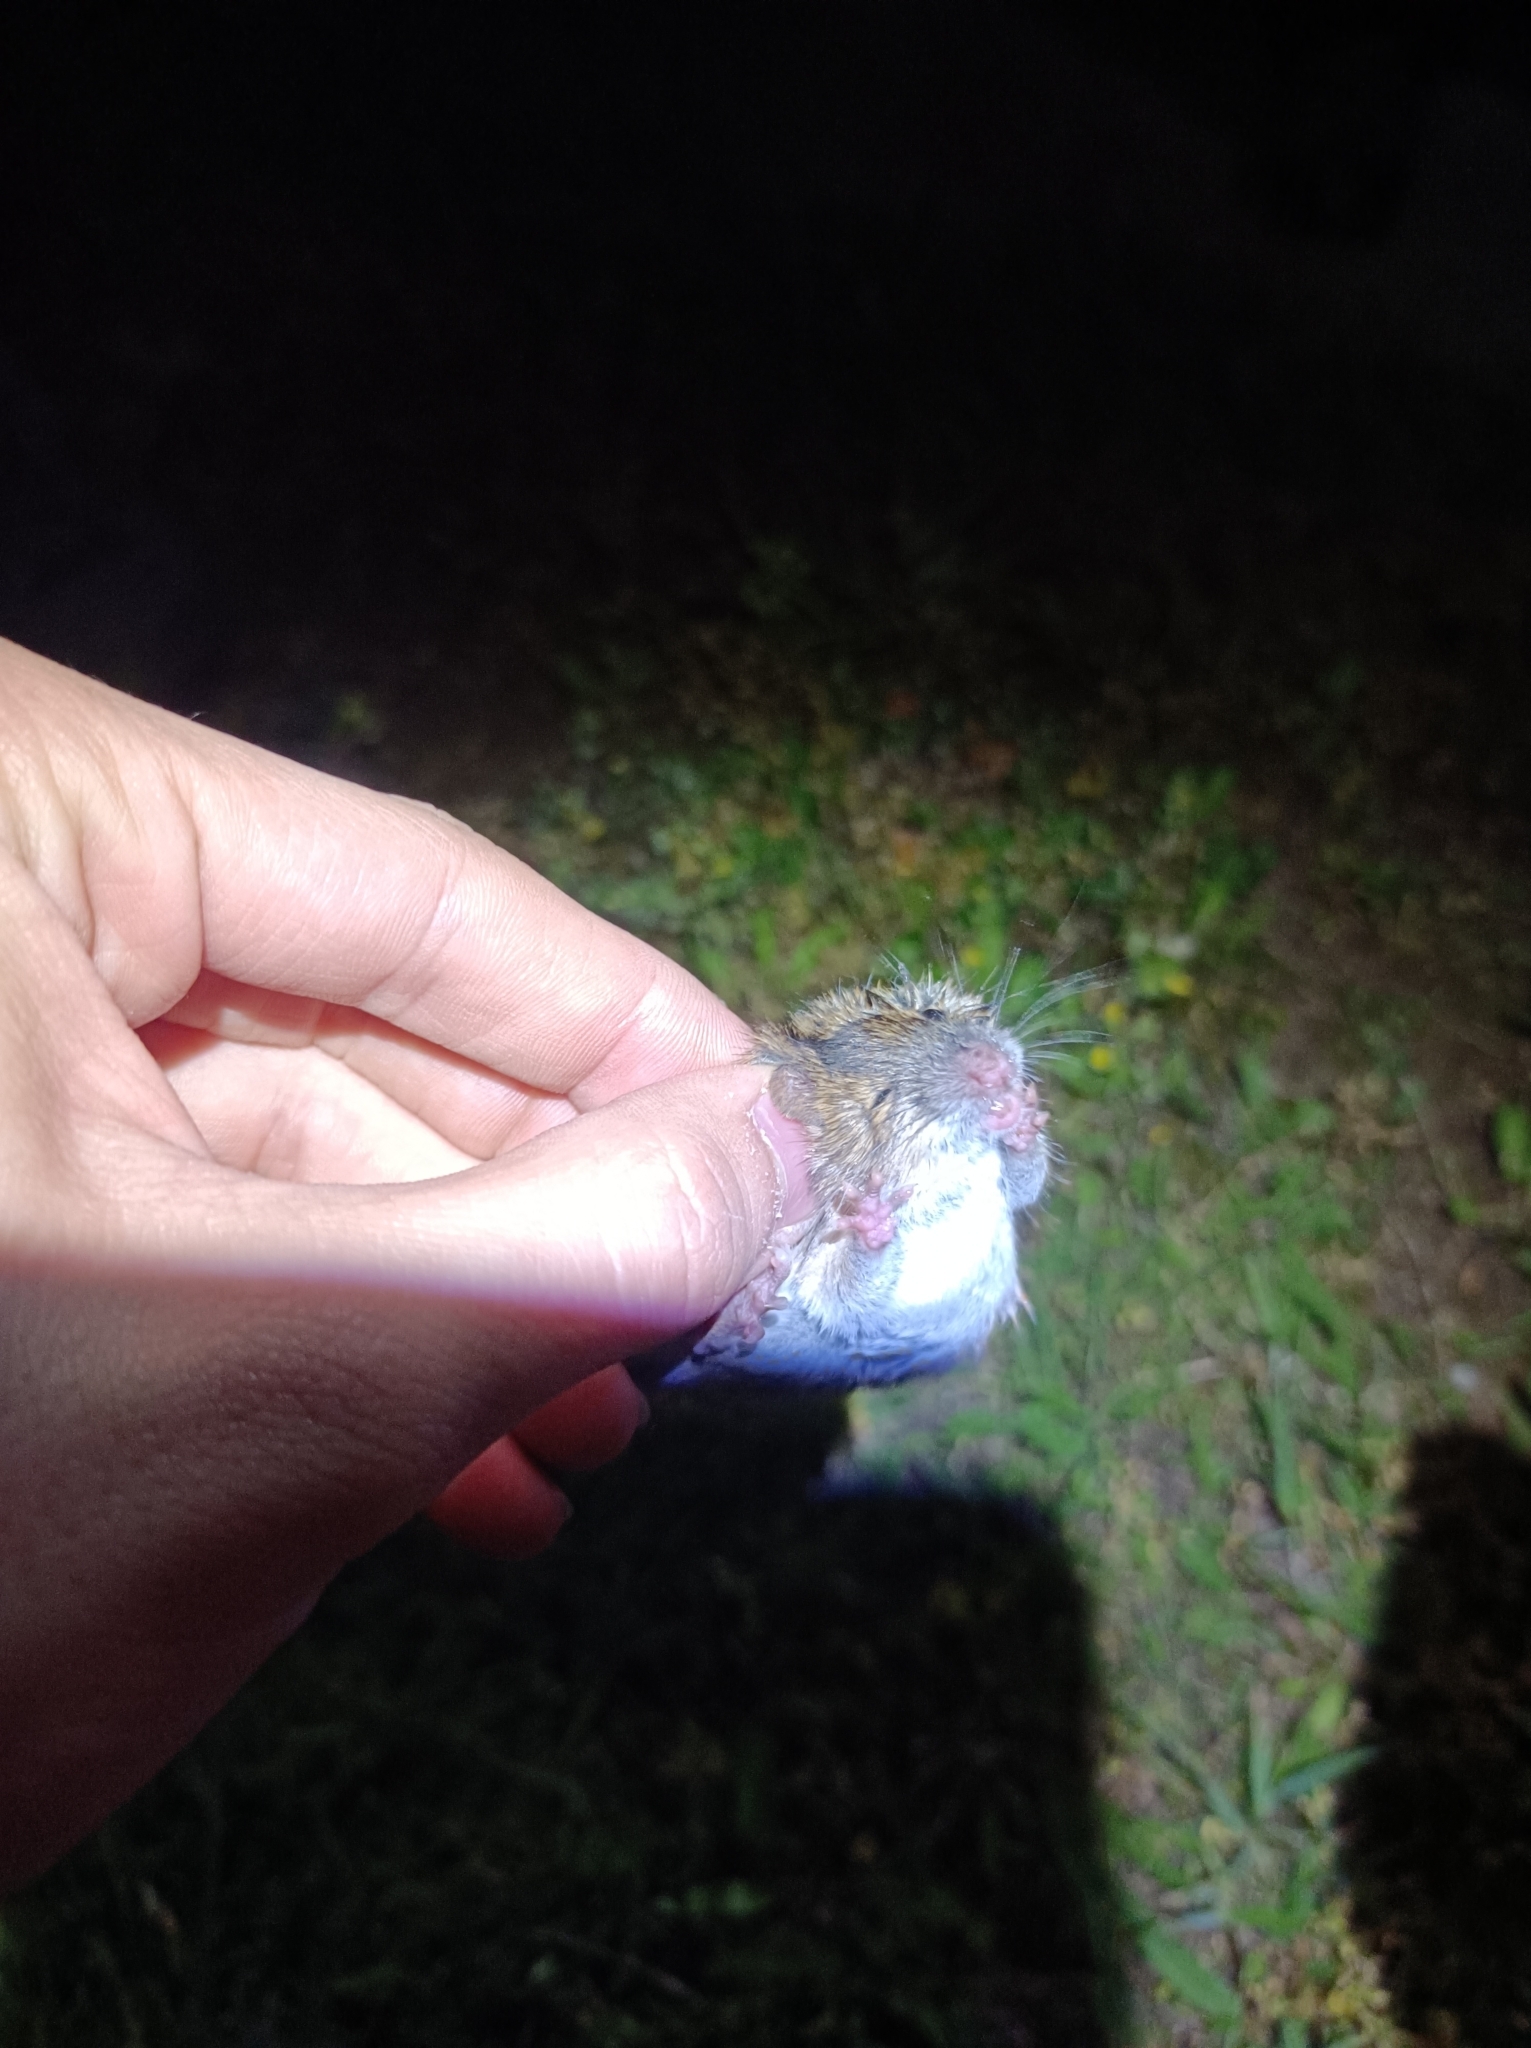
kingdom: Animalia
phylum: Chordata
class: Mammalia
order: Rodentia
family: Muridae
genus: Apodemus
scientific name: Apodemus agrarius
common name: Striped field mouse
